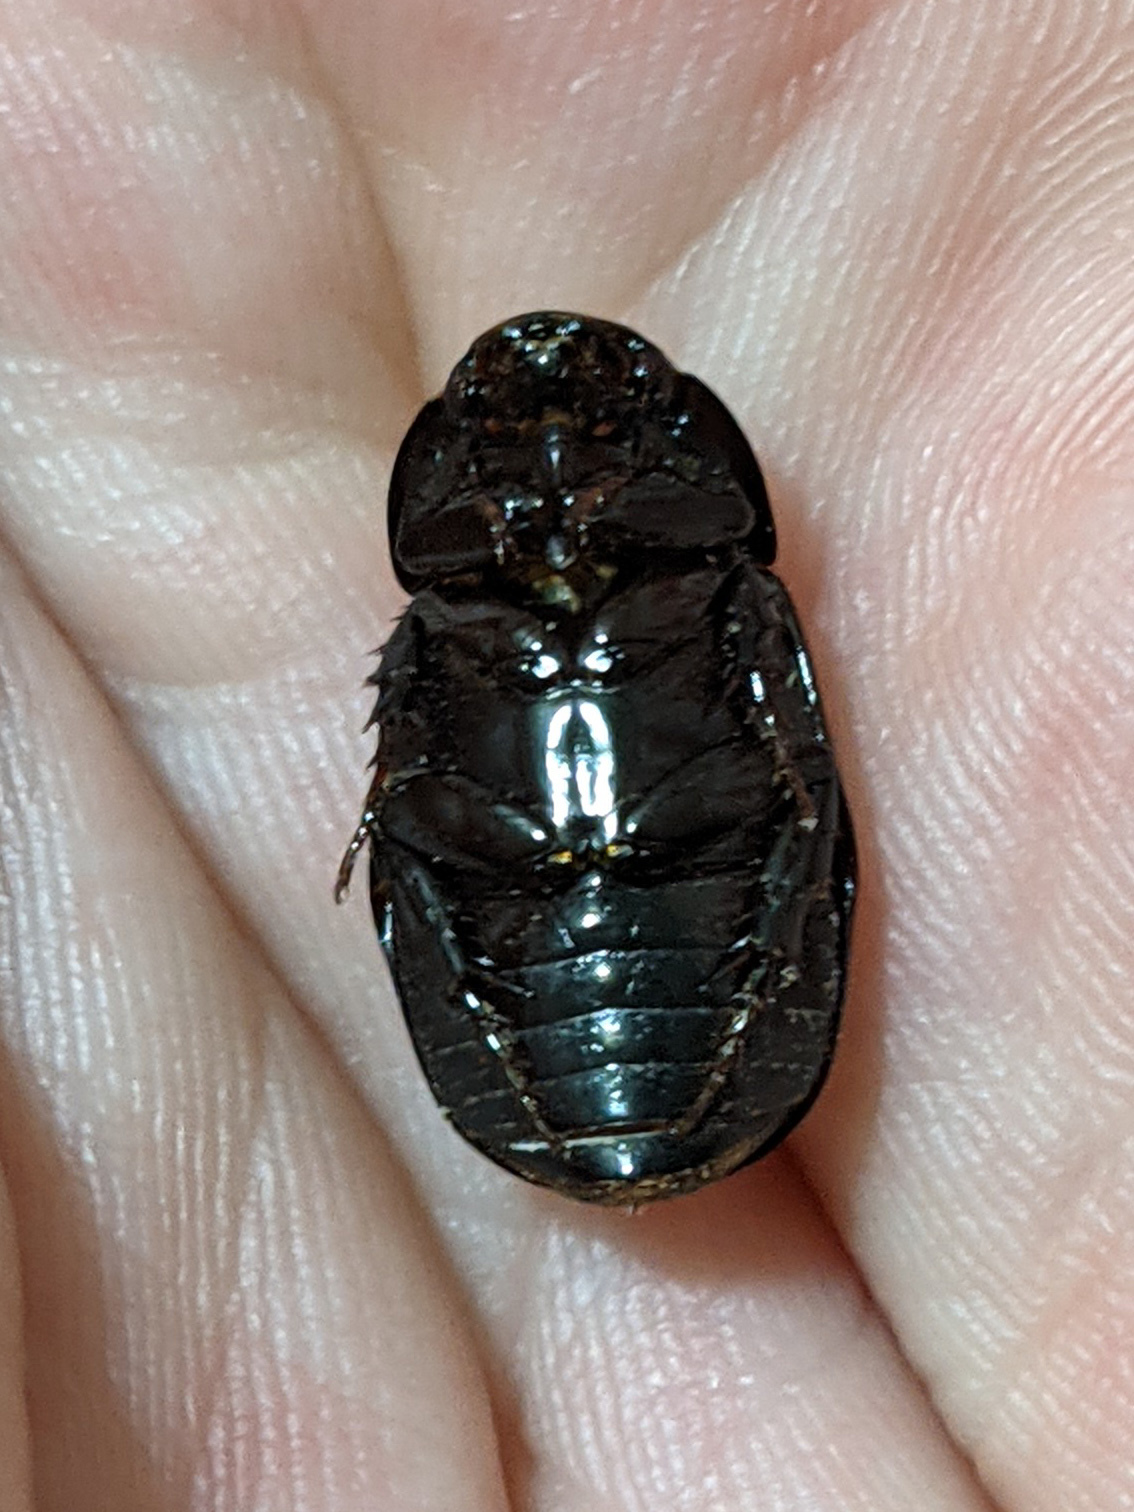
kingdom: Animalia
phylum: Arthropoda
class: Insecta
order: Coleoptera
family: Scarabaeidae
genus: Dyscinetus
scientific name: Dyscinetus morator
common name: Rice beetle
